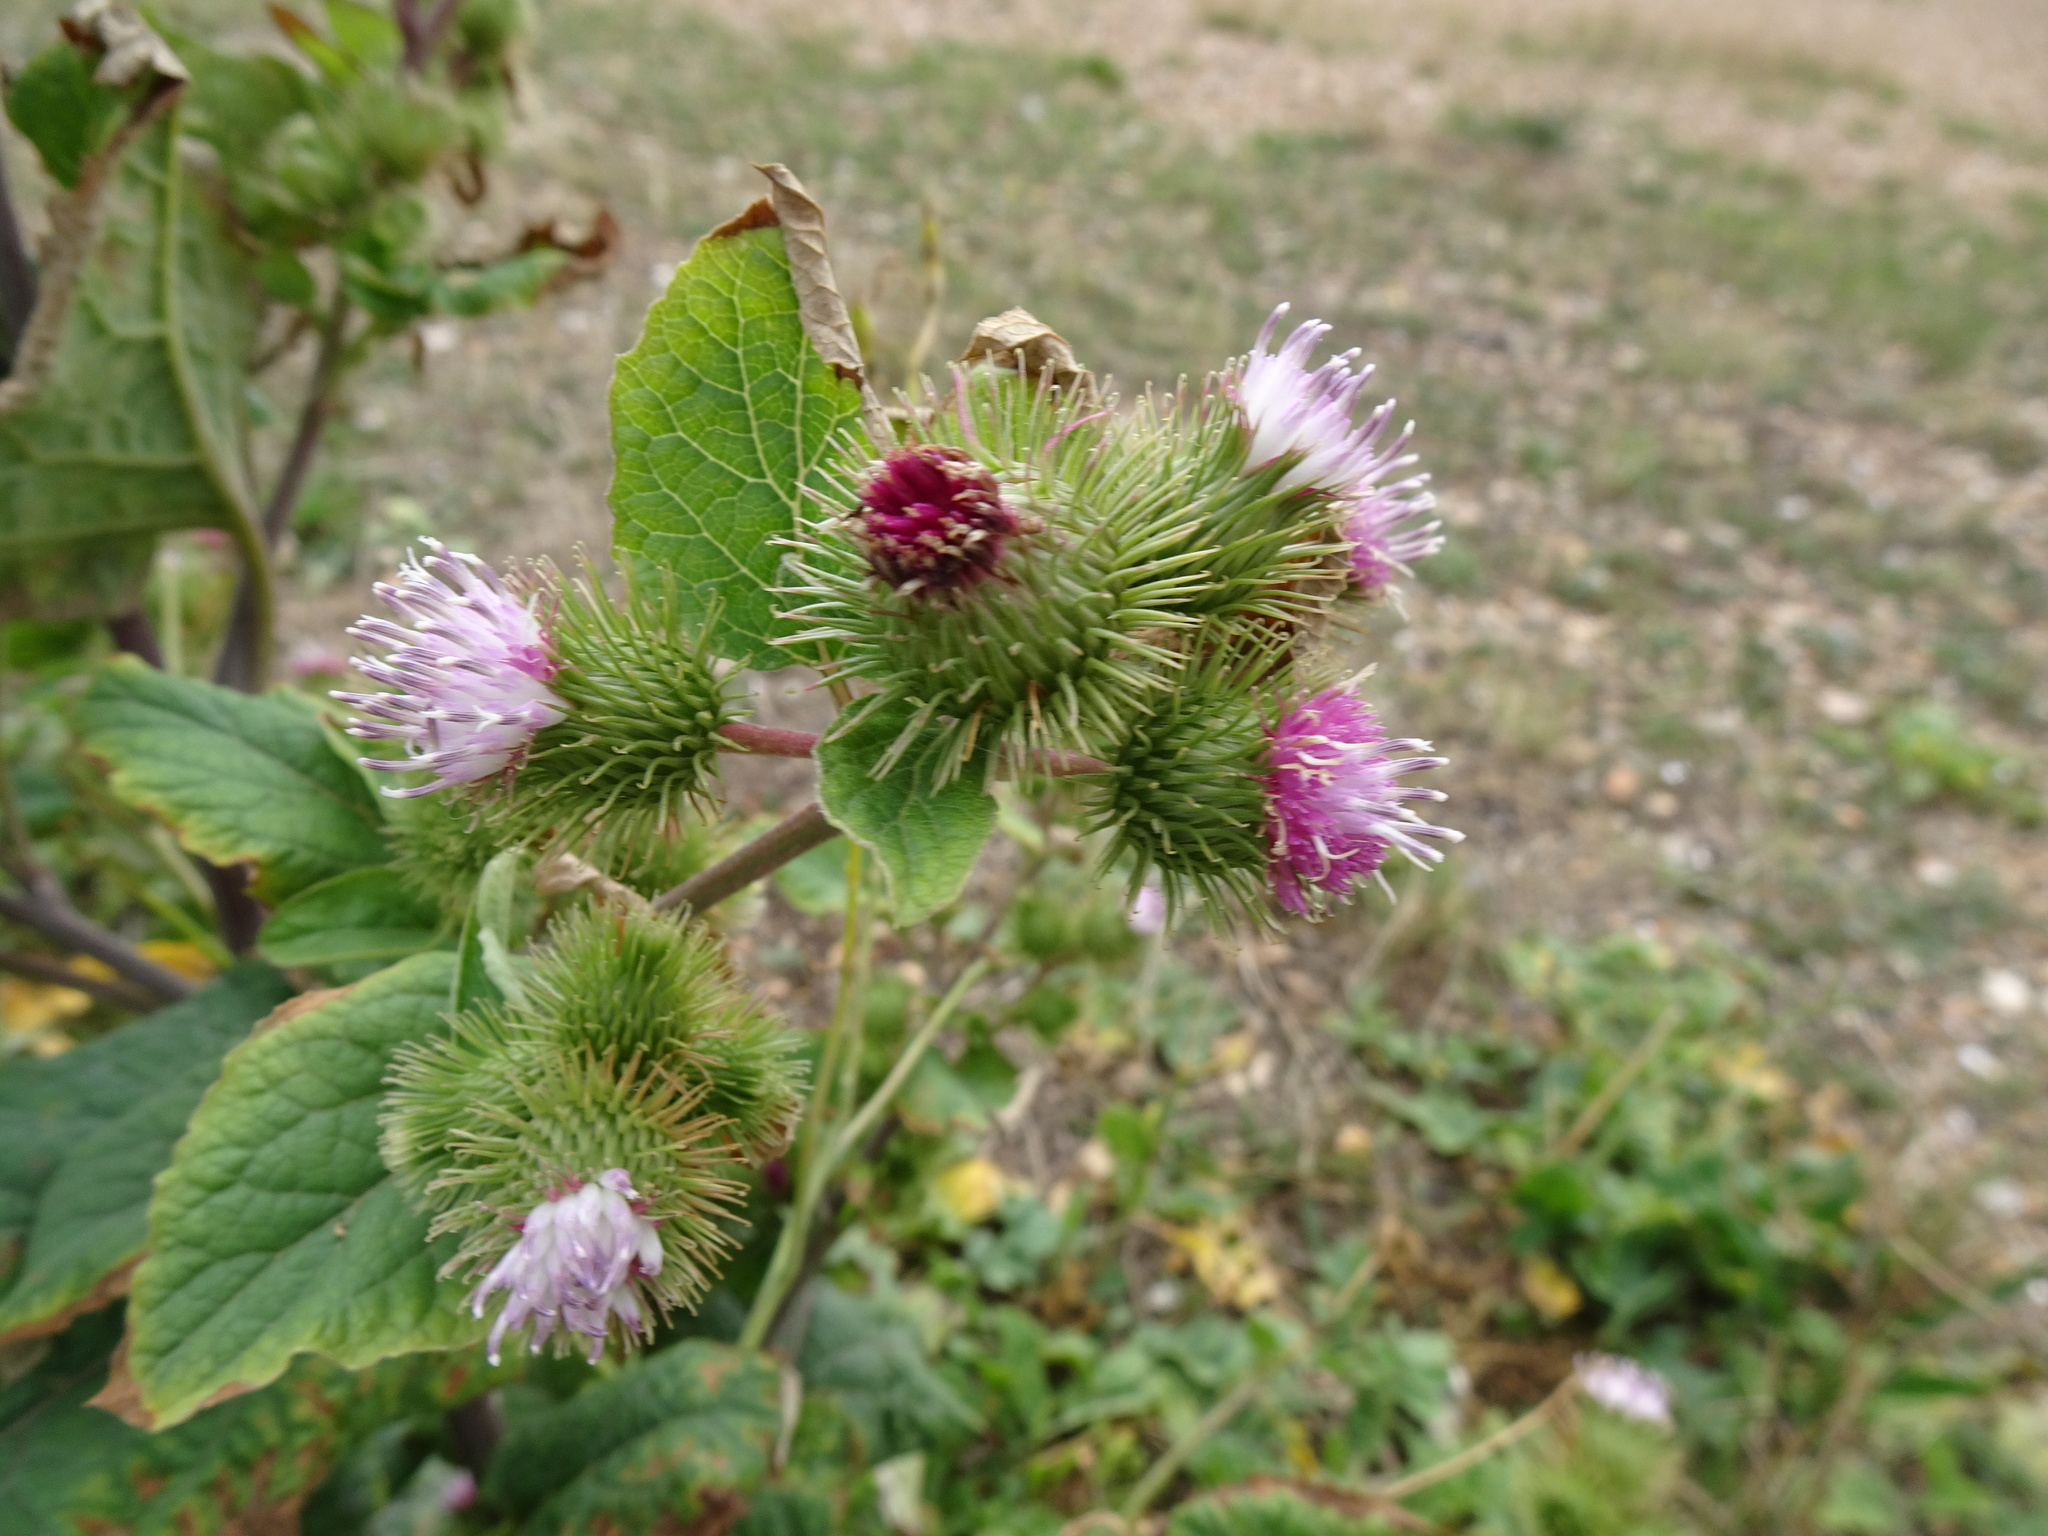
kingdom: Plantae
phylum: Tracheophyta
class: Magnoliopsida
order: Asterales
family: Asteraceae
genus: Arctium
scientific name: Arctium minus
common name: Lesser burdock
